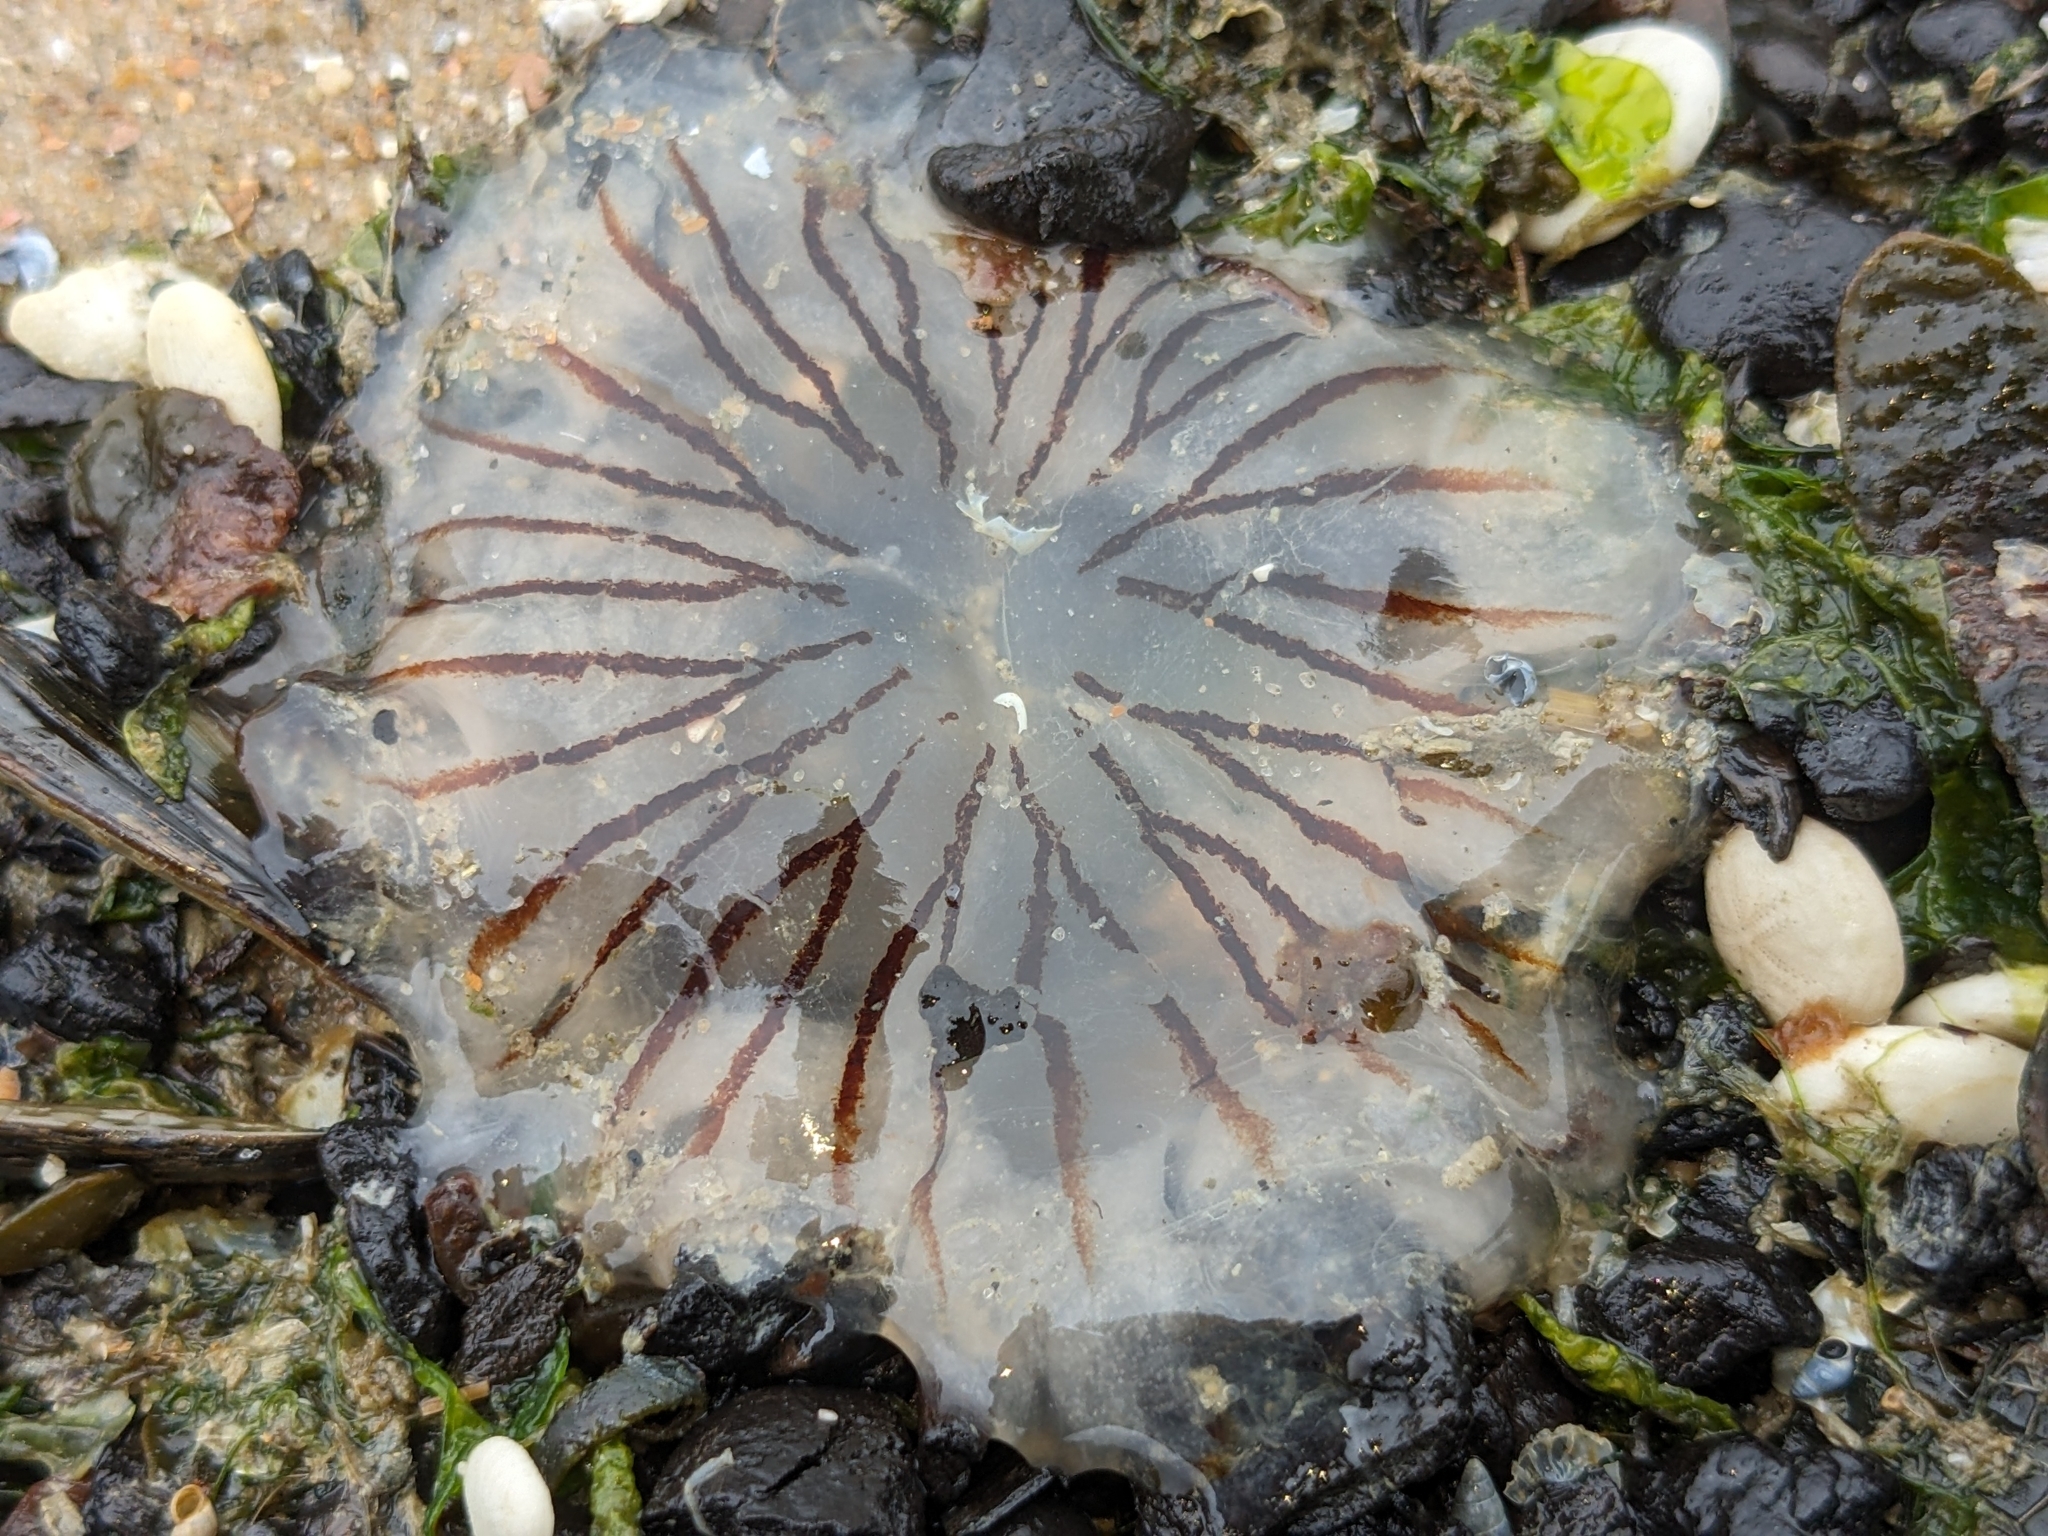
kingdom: Animalia
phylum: Cnidaria
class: Scyphozoa
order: Semaeostomeae
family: Pelagiidae
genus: Chrysaora
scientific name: Chrysaora hysoscella
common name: Compass jellyfish
